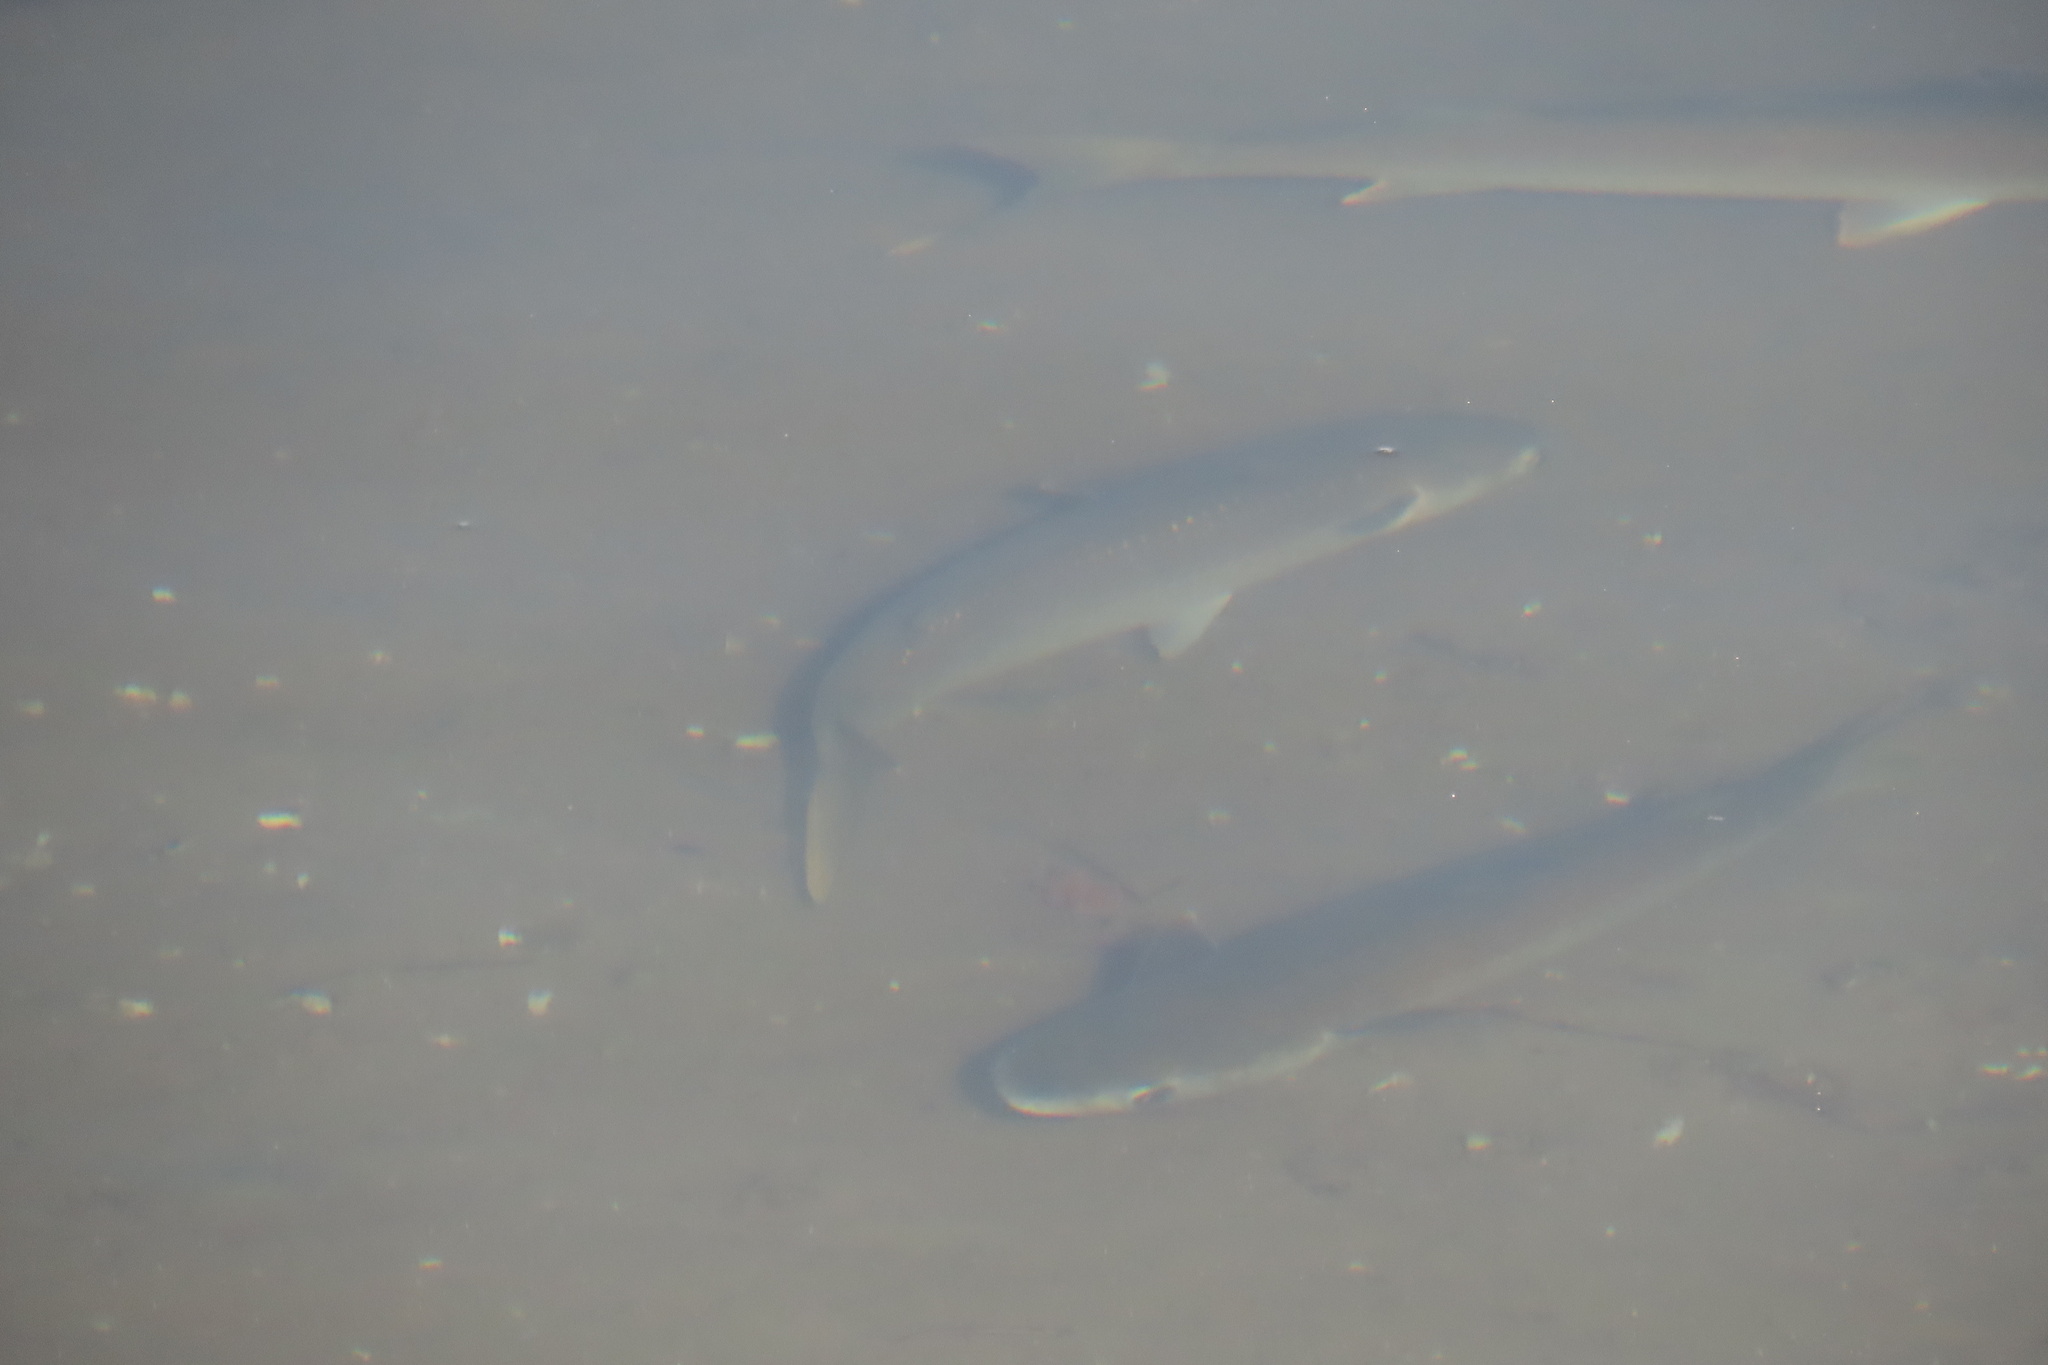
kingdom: Animalia
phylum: Chordata
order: Mugiliformes
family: Mugilidae
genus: Mugil
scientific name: Mugil cephalus
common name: Grey mullet
